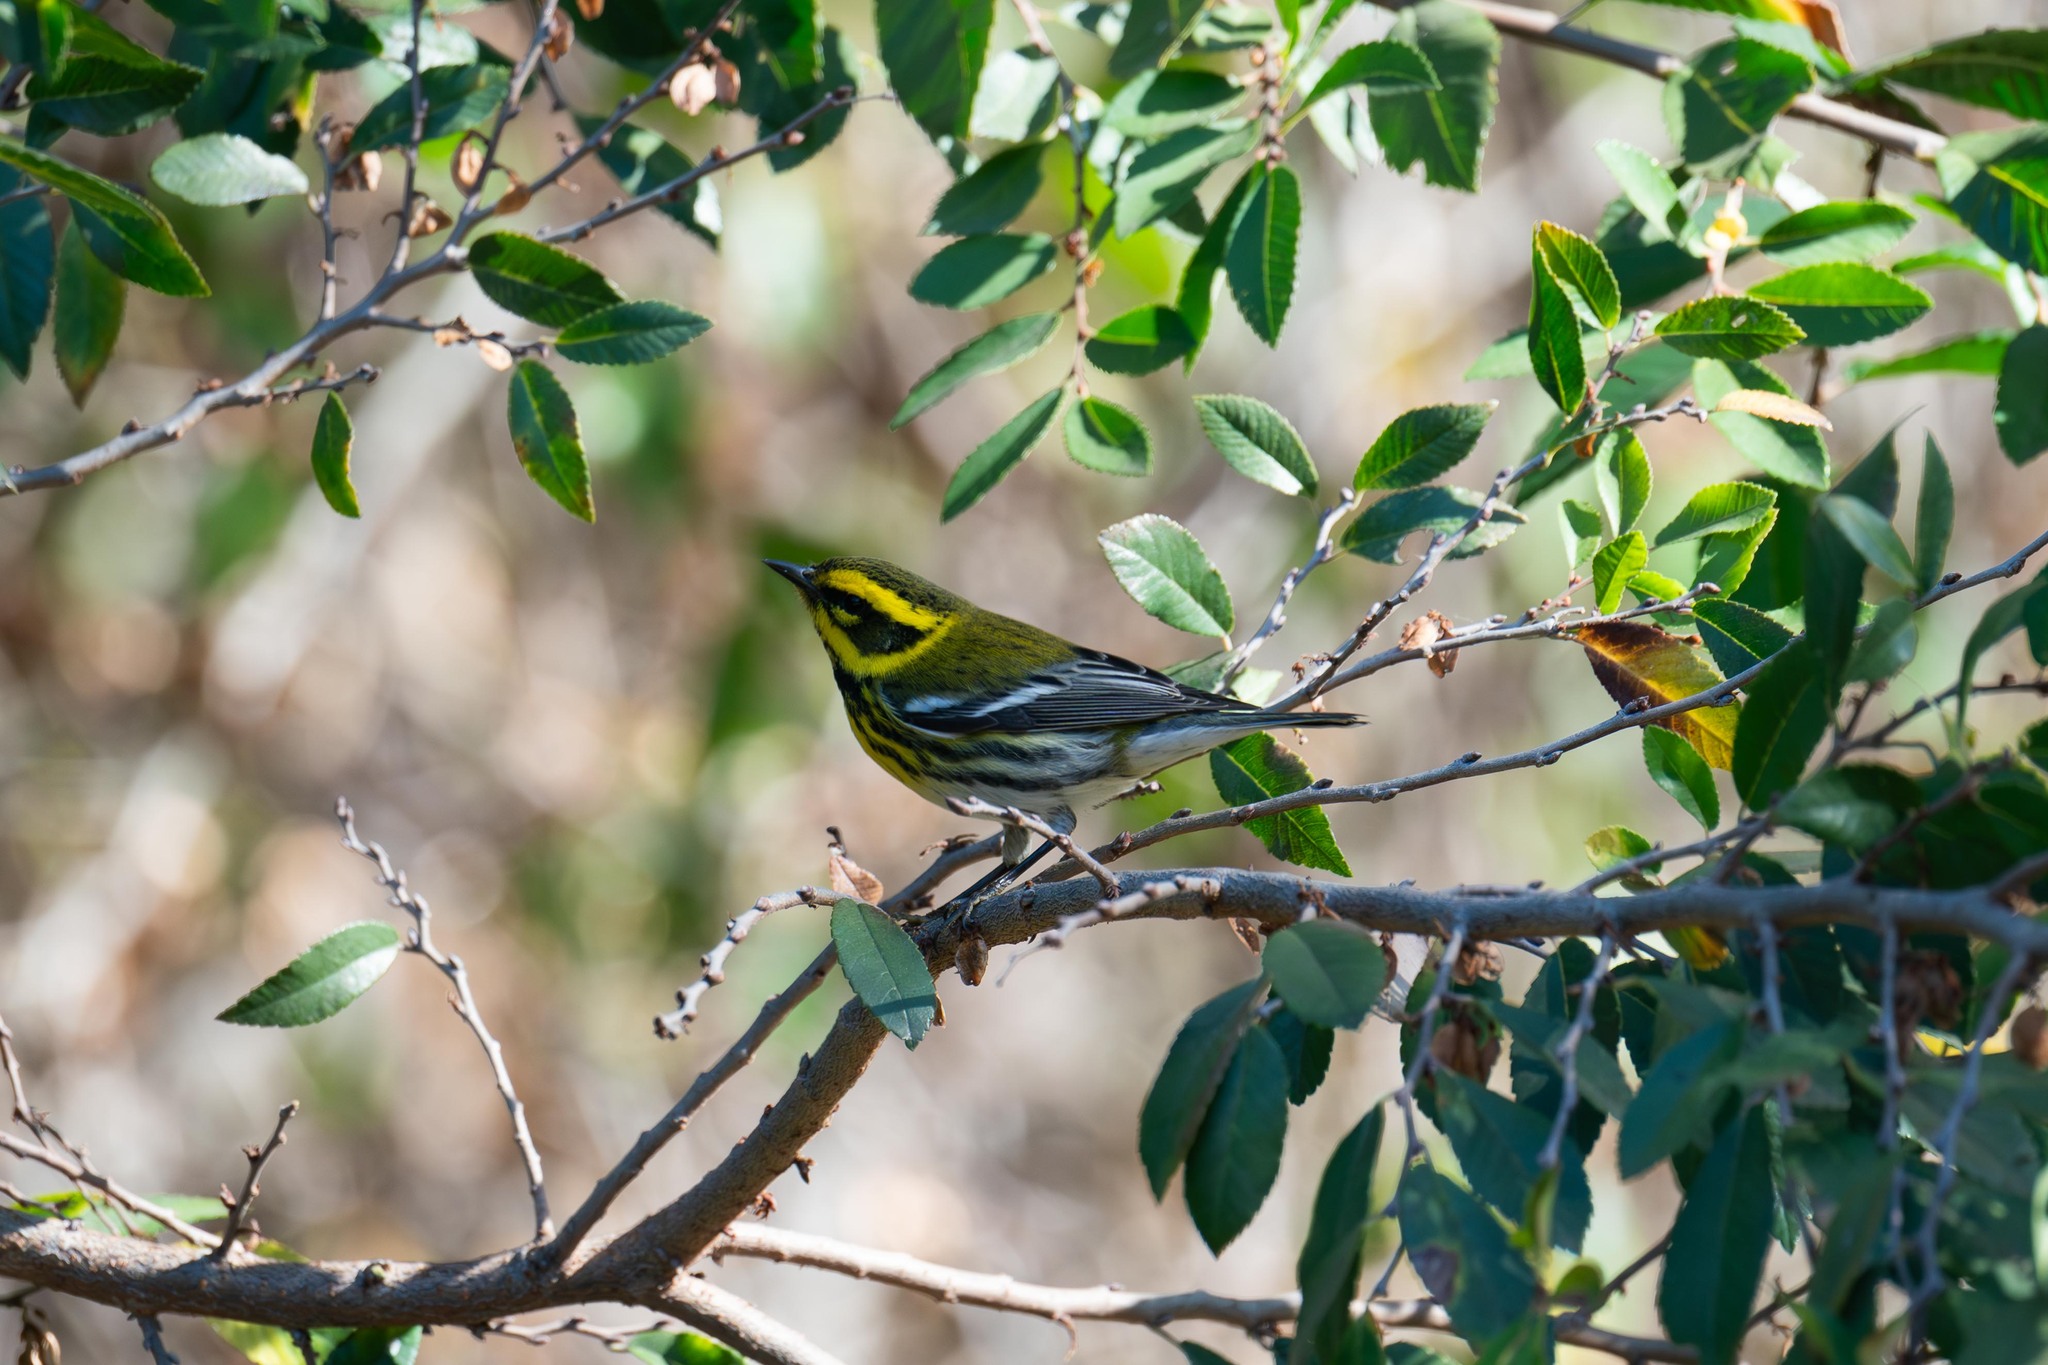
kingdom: Animalia
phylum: Chordata
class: Aves
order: Passeriformes
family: Parulidae
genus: Setophaga
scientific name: Setophaga townsendi
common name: Townsend's warbler
